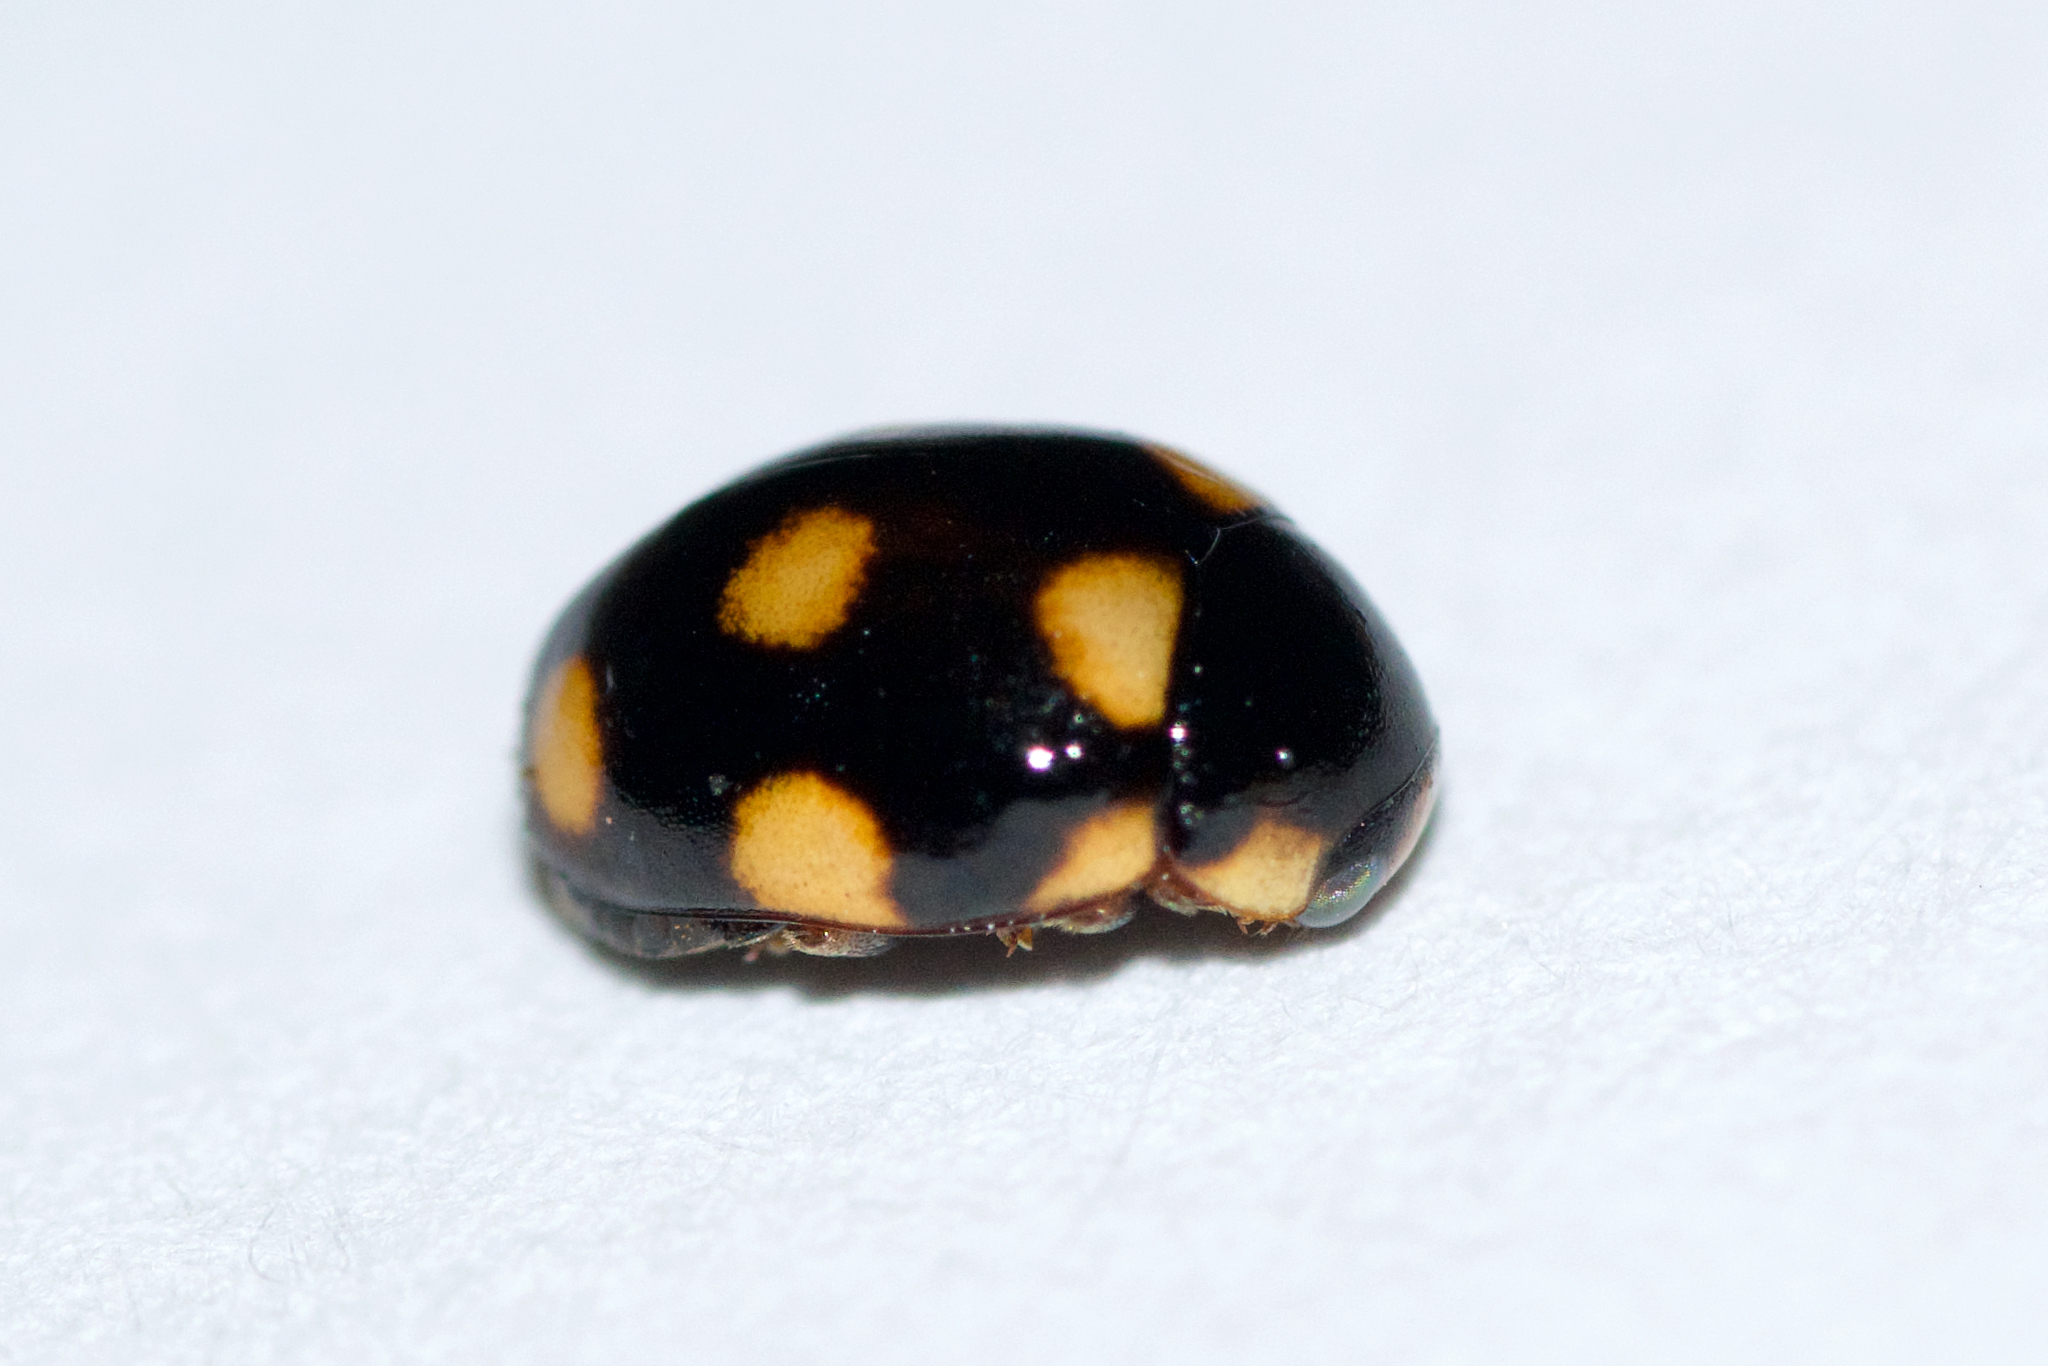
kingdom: Animalia
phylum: Arthropoda
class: Insecta
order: Coleoptera
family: Coccinellidae
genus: Brachiacantha
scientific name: Brachiacantha ursina
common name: Ursine spurleg lady beetle
